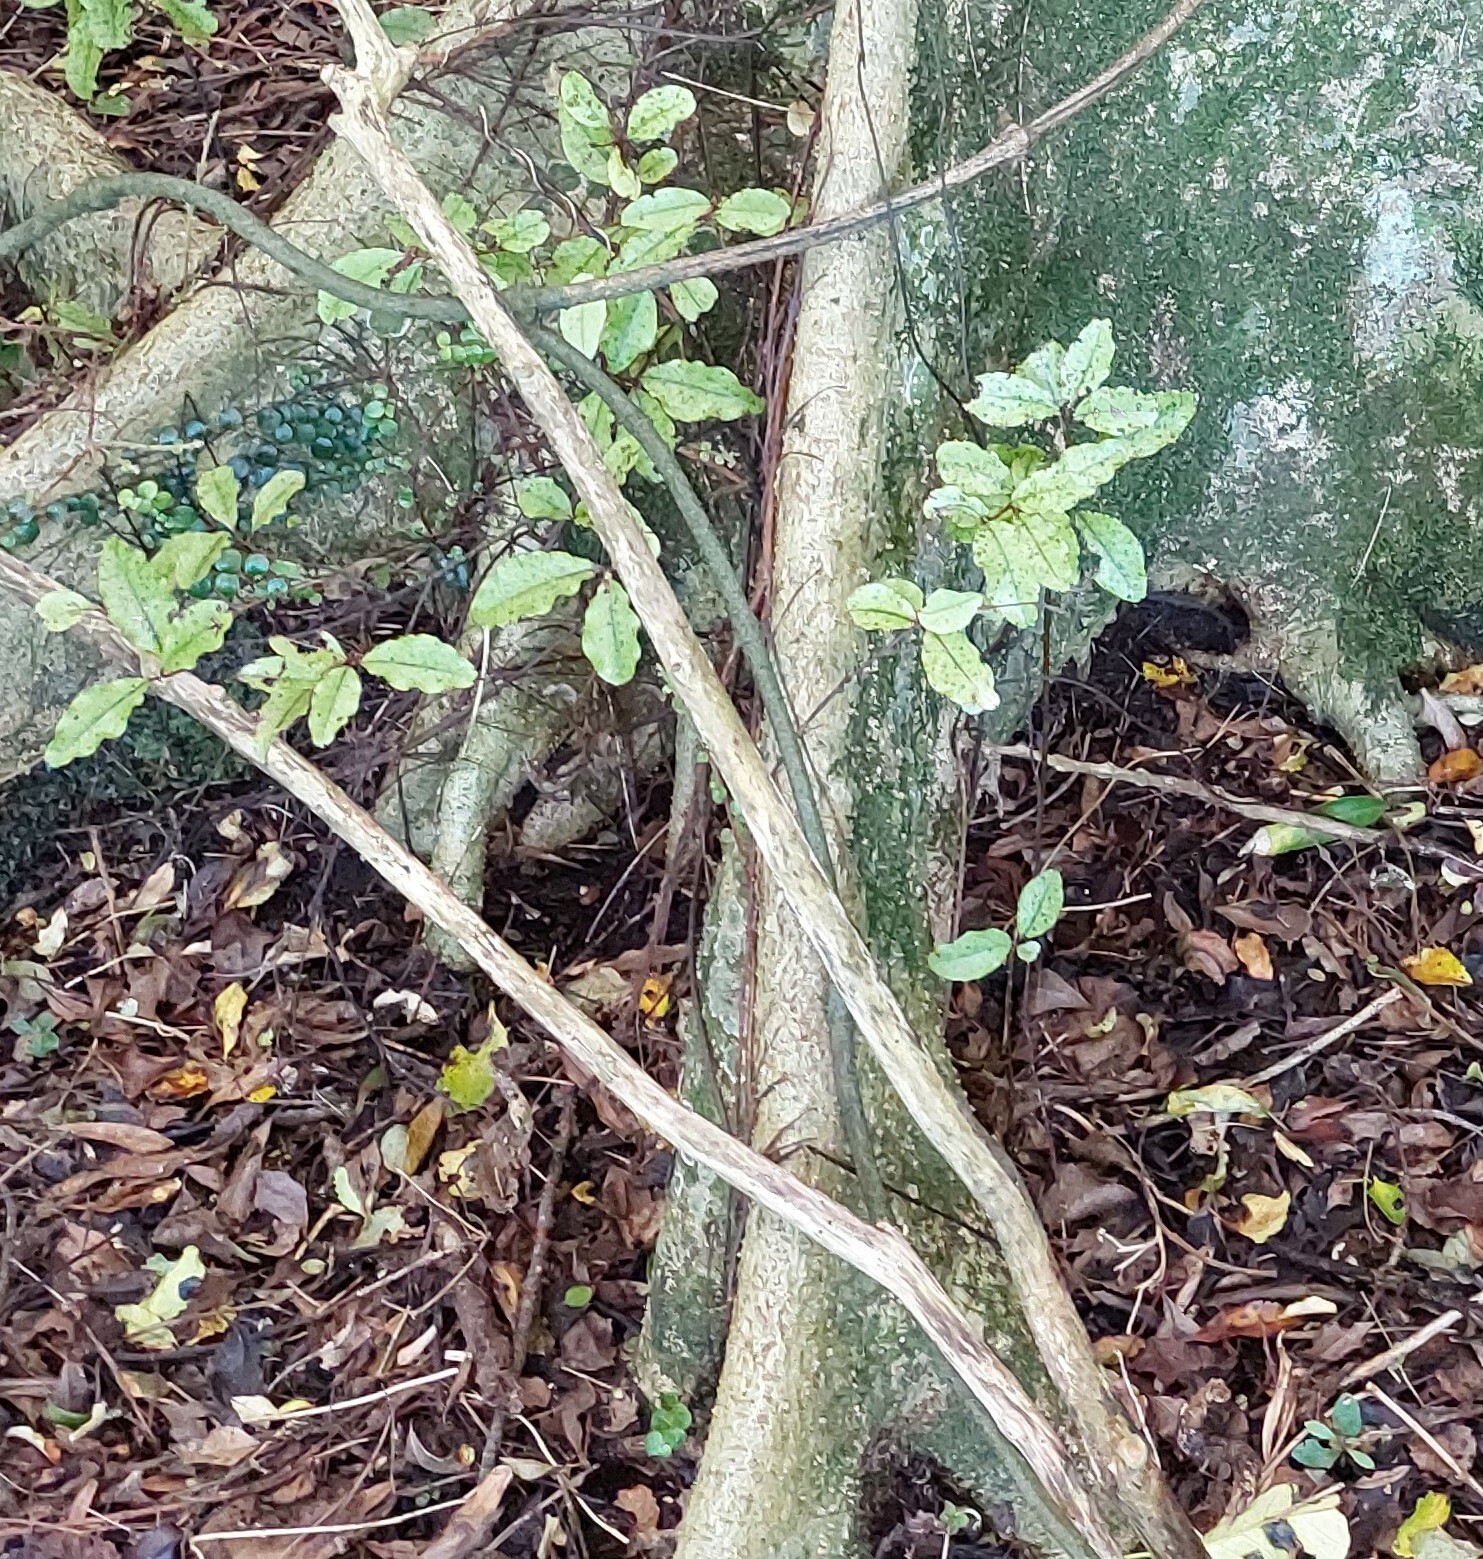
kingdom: Plantae
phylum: Tracheophyta
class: Magnoliopsida
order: Ericales
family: Primulaceae
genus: Myrsine
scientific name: Myrsine australis
